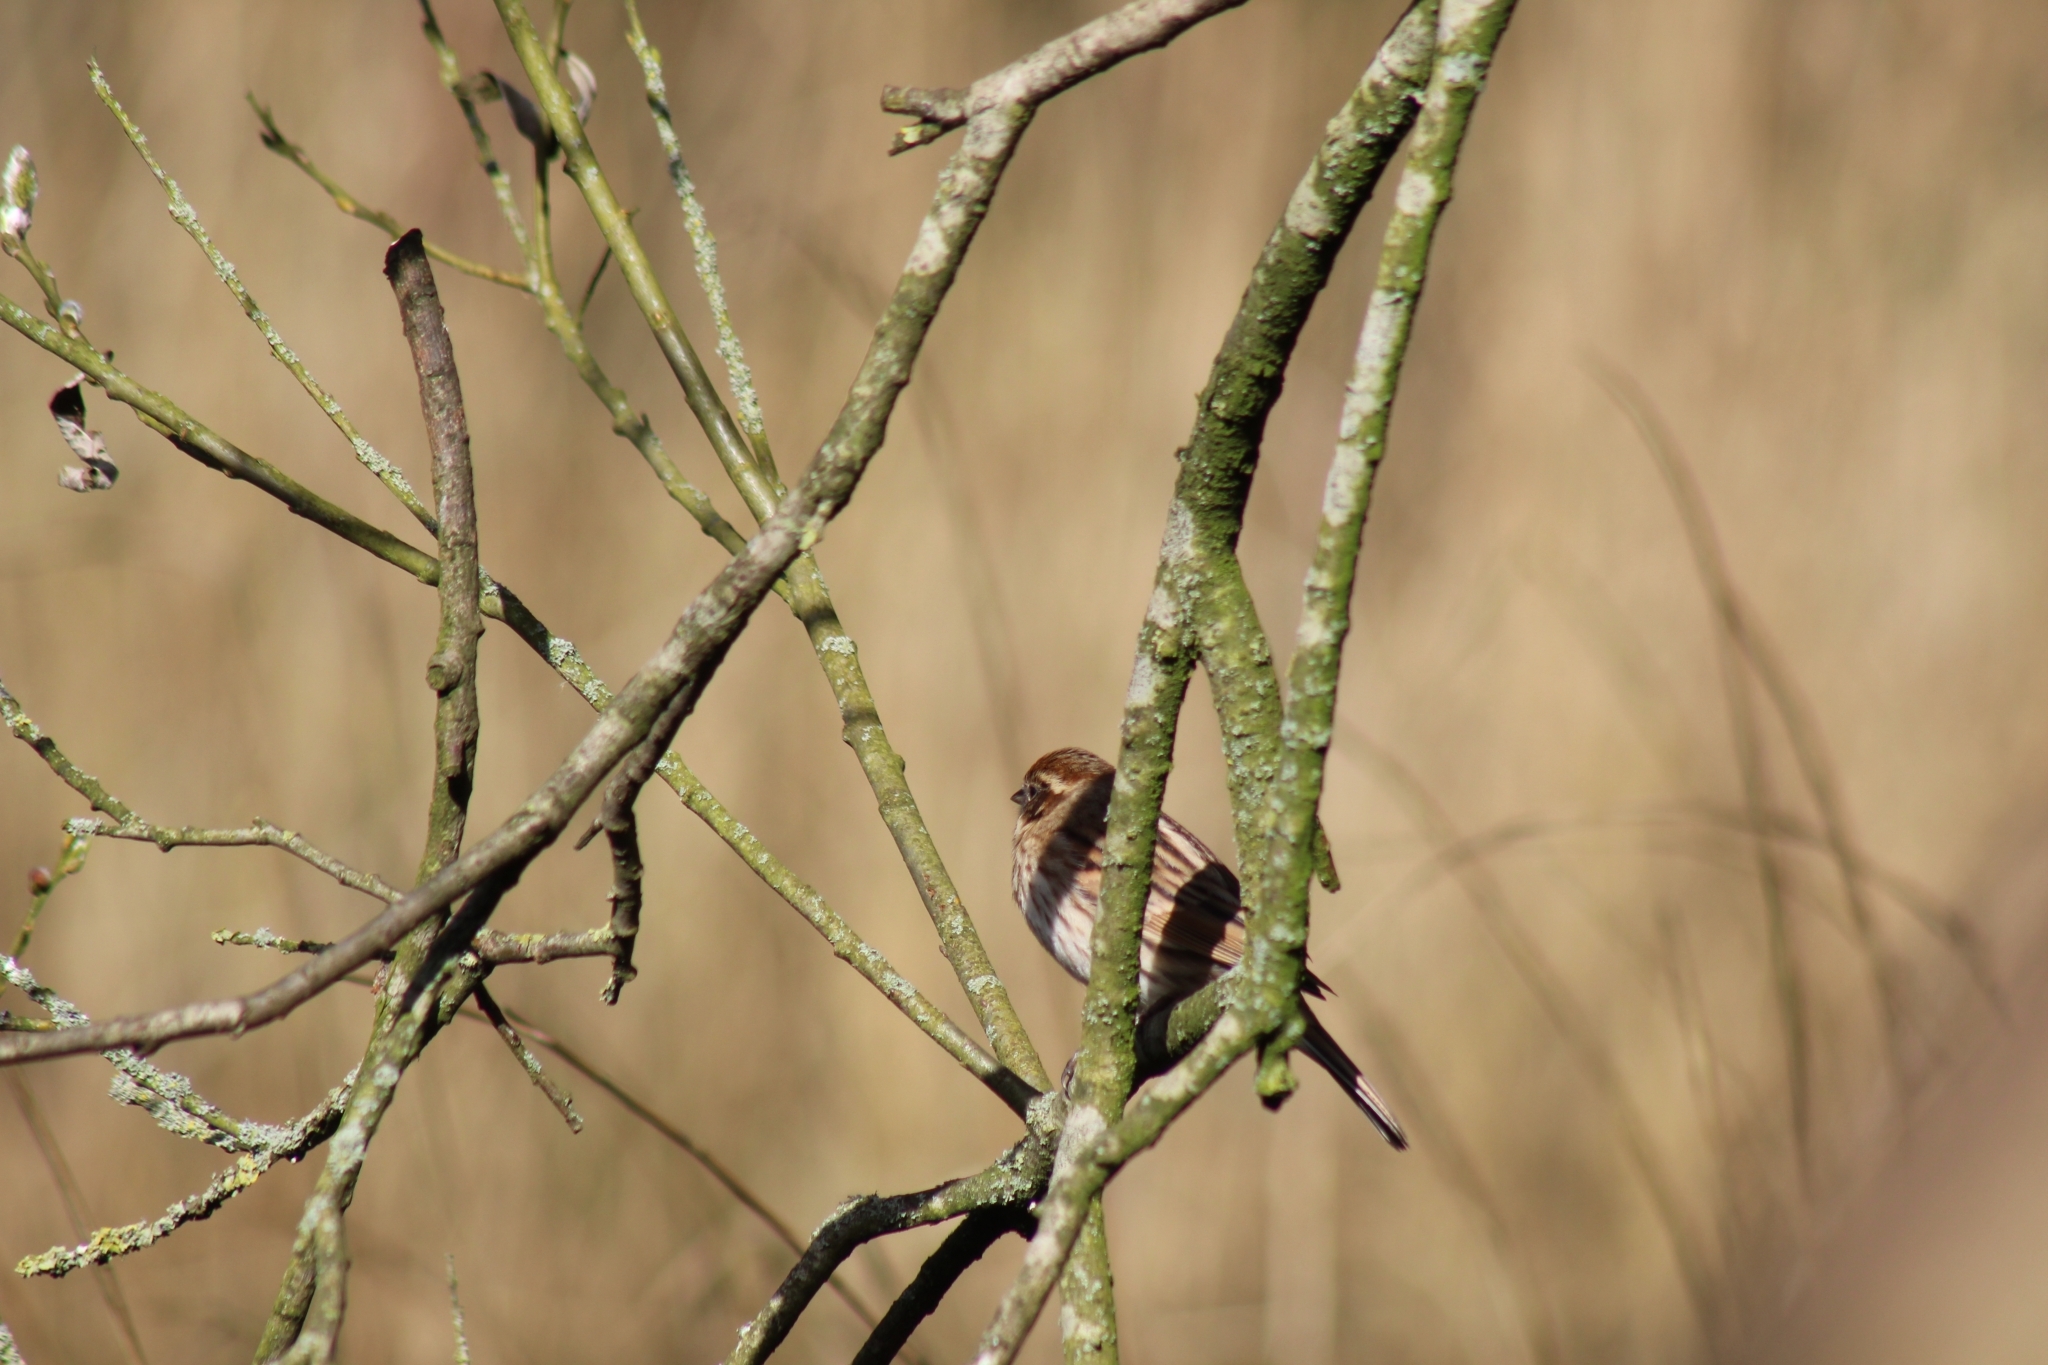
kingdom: Animalia
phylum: Chordata
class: Aves
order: Passeriformes
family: Emberizidae
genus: Emberiza
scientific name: Emberiza schoeniclus
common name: Reed bunting
